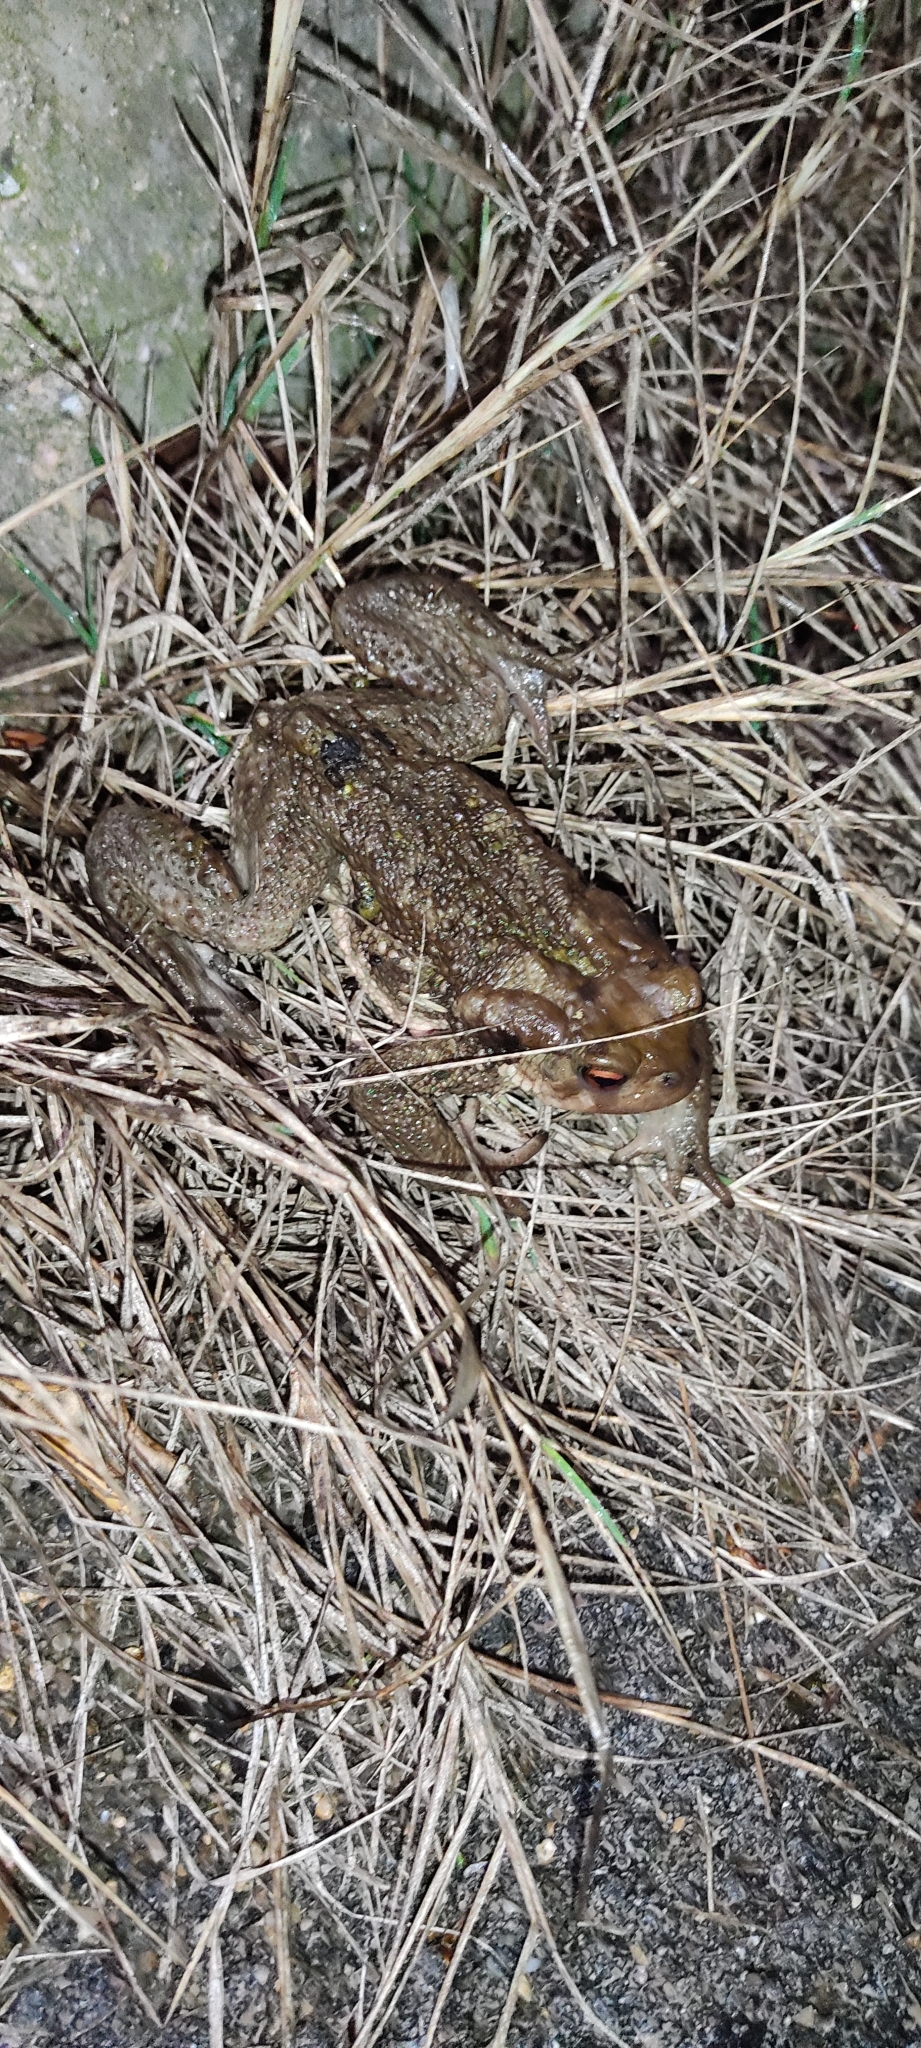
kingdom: Animalia
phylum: Chordata
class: Amphibia
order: Anura
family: Bufonidae
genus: Bufo
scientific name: Bufo spinosus
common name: Western common toad
